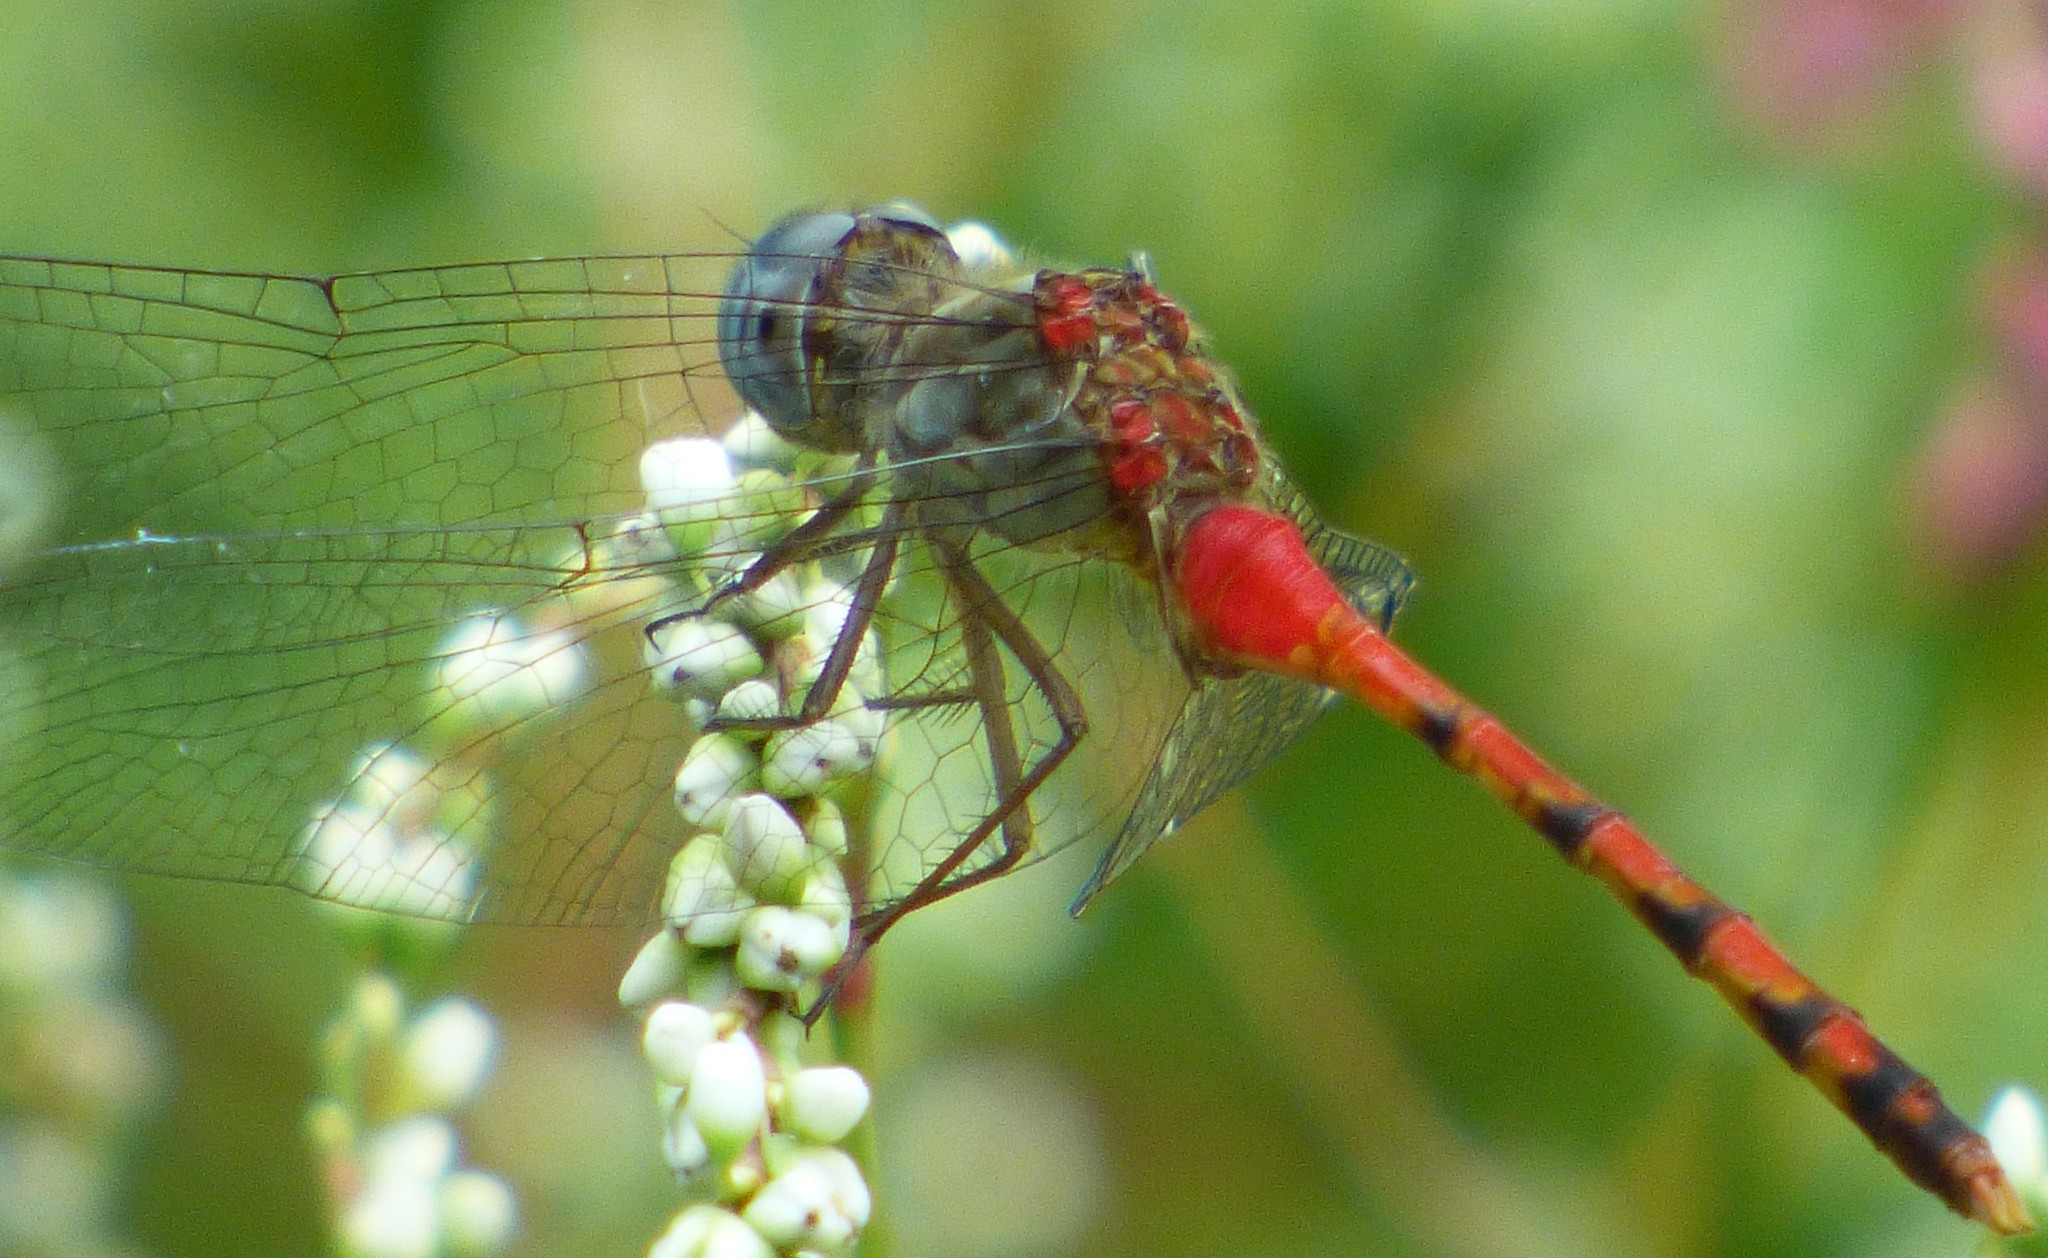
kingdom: Animalia
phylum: Arthropoda
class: Insecta
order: Odonata
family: Libellulidae
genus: Sympetrum
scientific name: Sympetrum ambiguum
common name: Blue-faced meadowhawk
